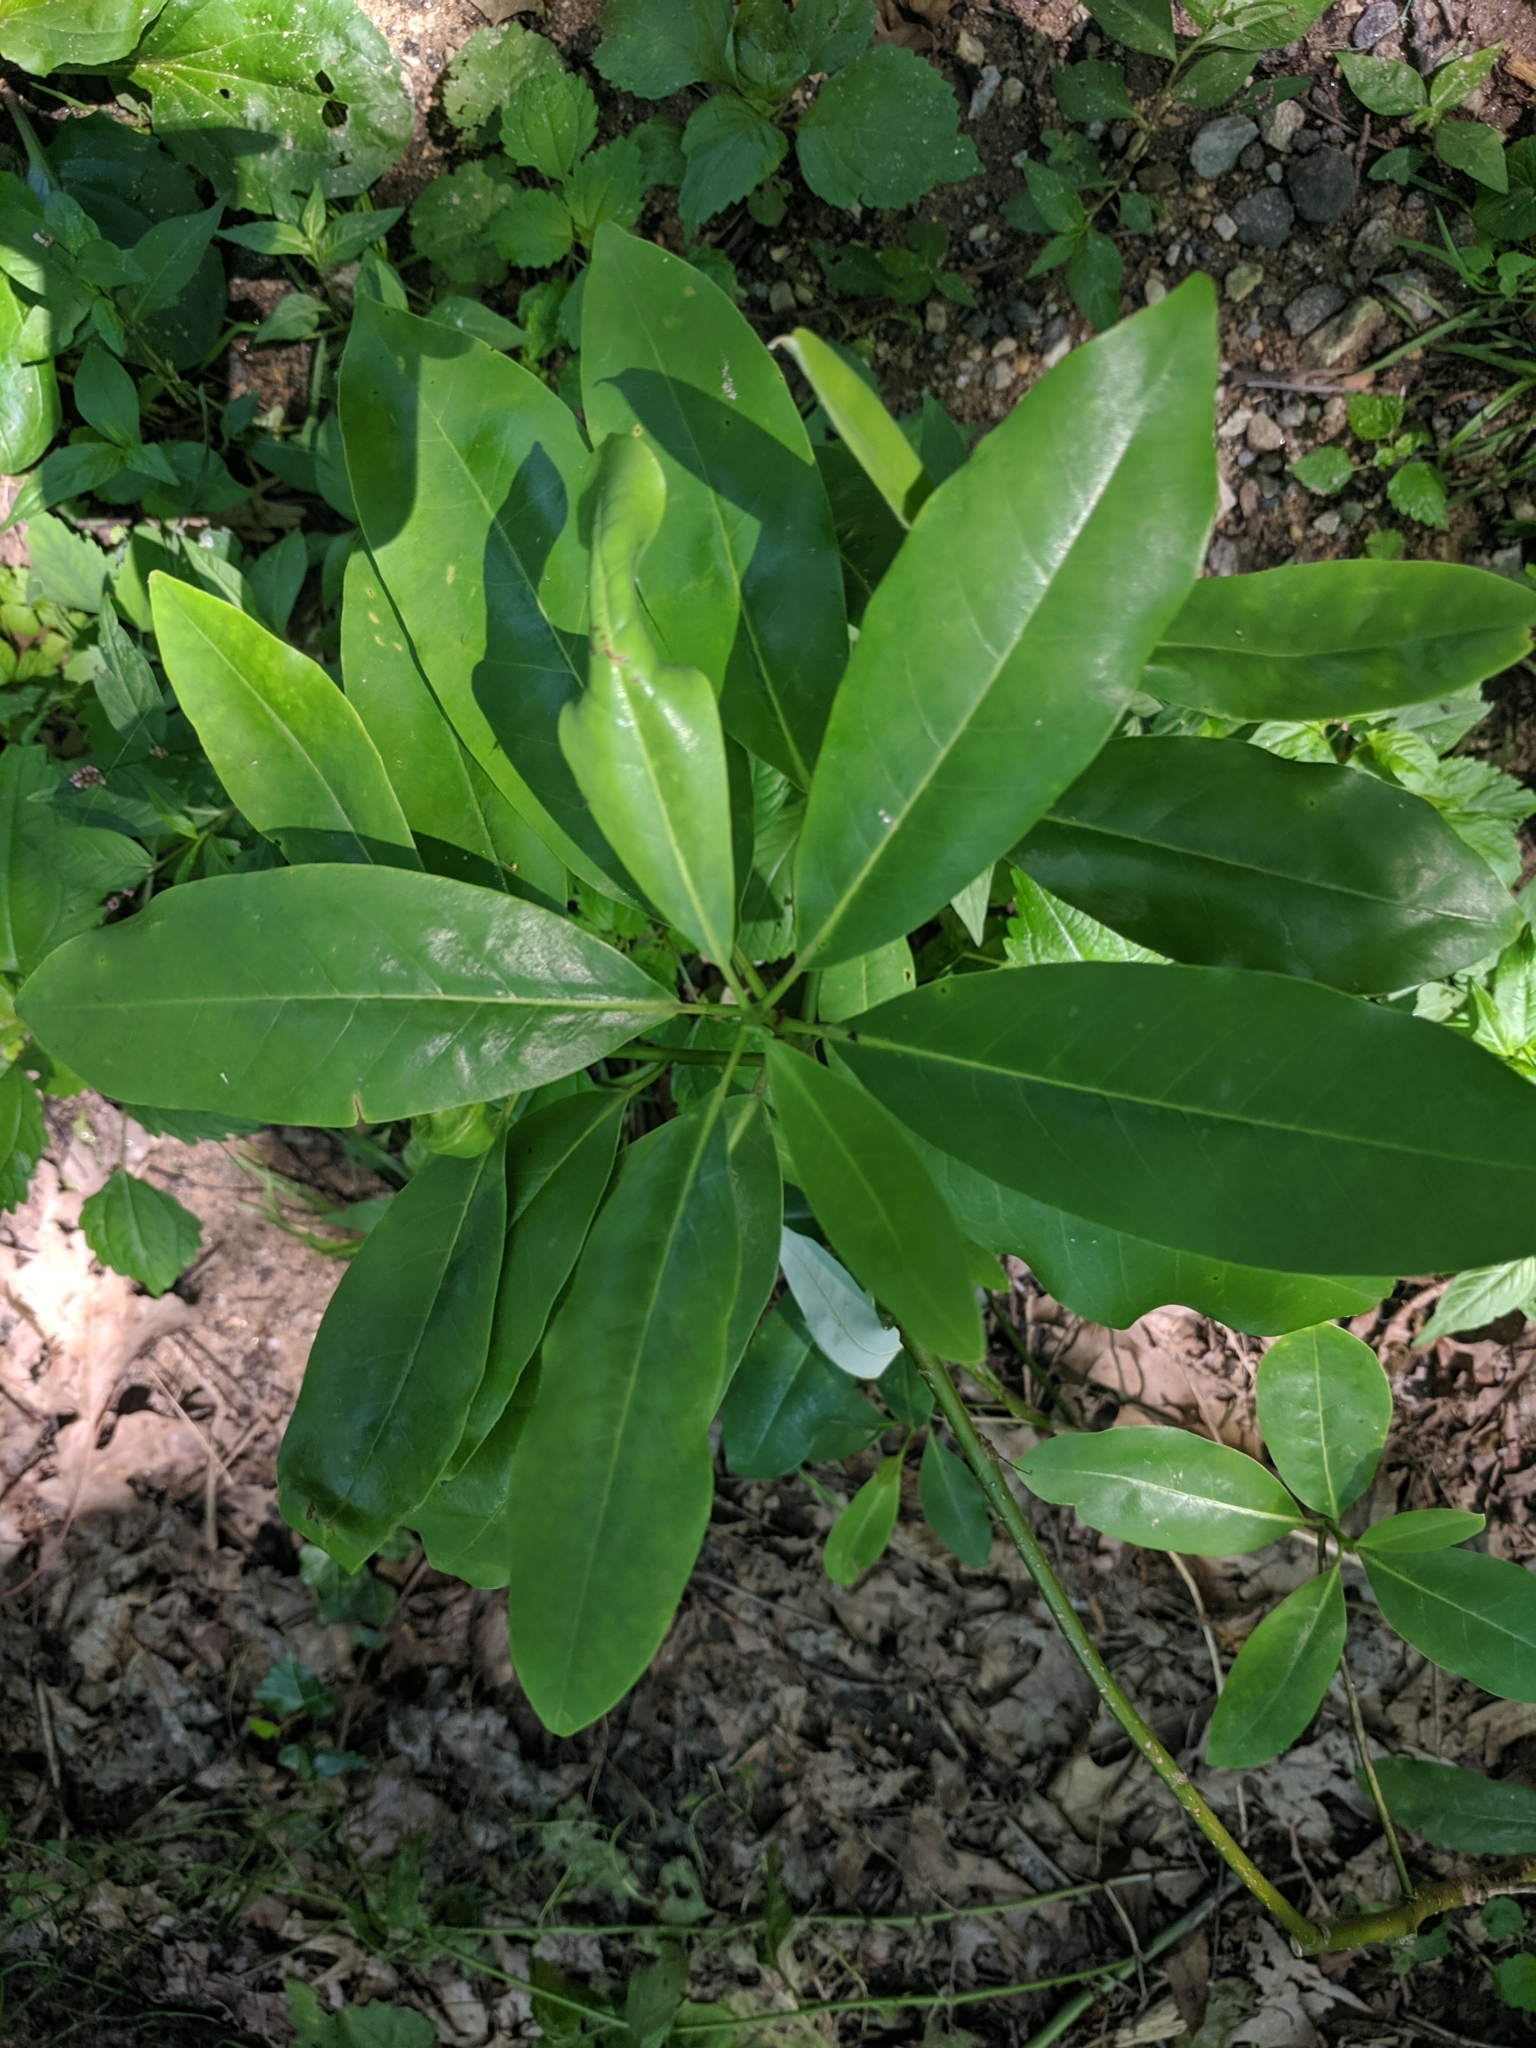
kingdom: Plantae
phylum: Tracheophyta
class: Magnoliopsida
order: Magnoliales
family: Magnoliaceae
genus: Magnolia
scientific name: Magnolia virginiana
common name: Swamp bay
